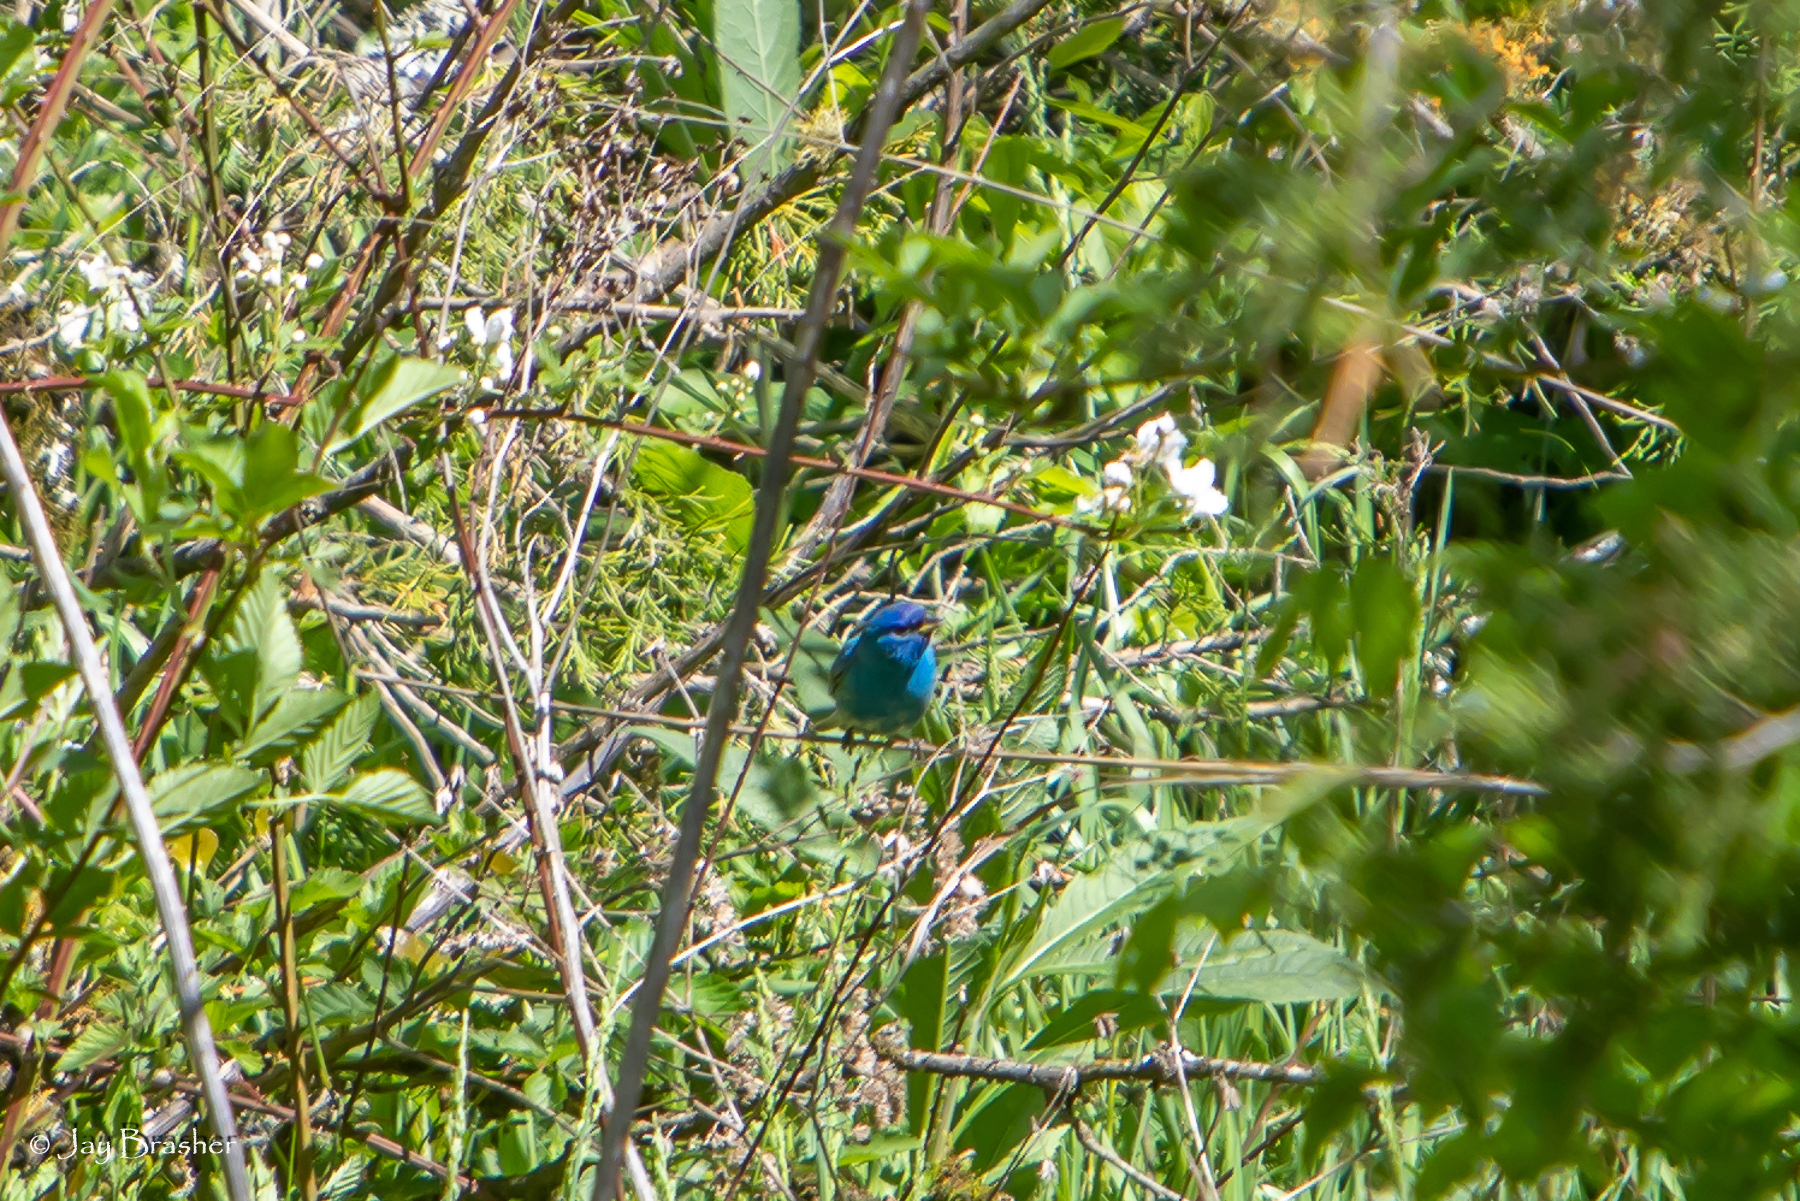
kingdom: Animalia
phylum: Chordata
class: Aves
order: Passeriformes
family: Cardinalidae
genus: Passerina
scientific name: Passerina cyanea
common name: Indigo bunting
